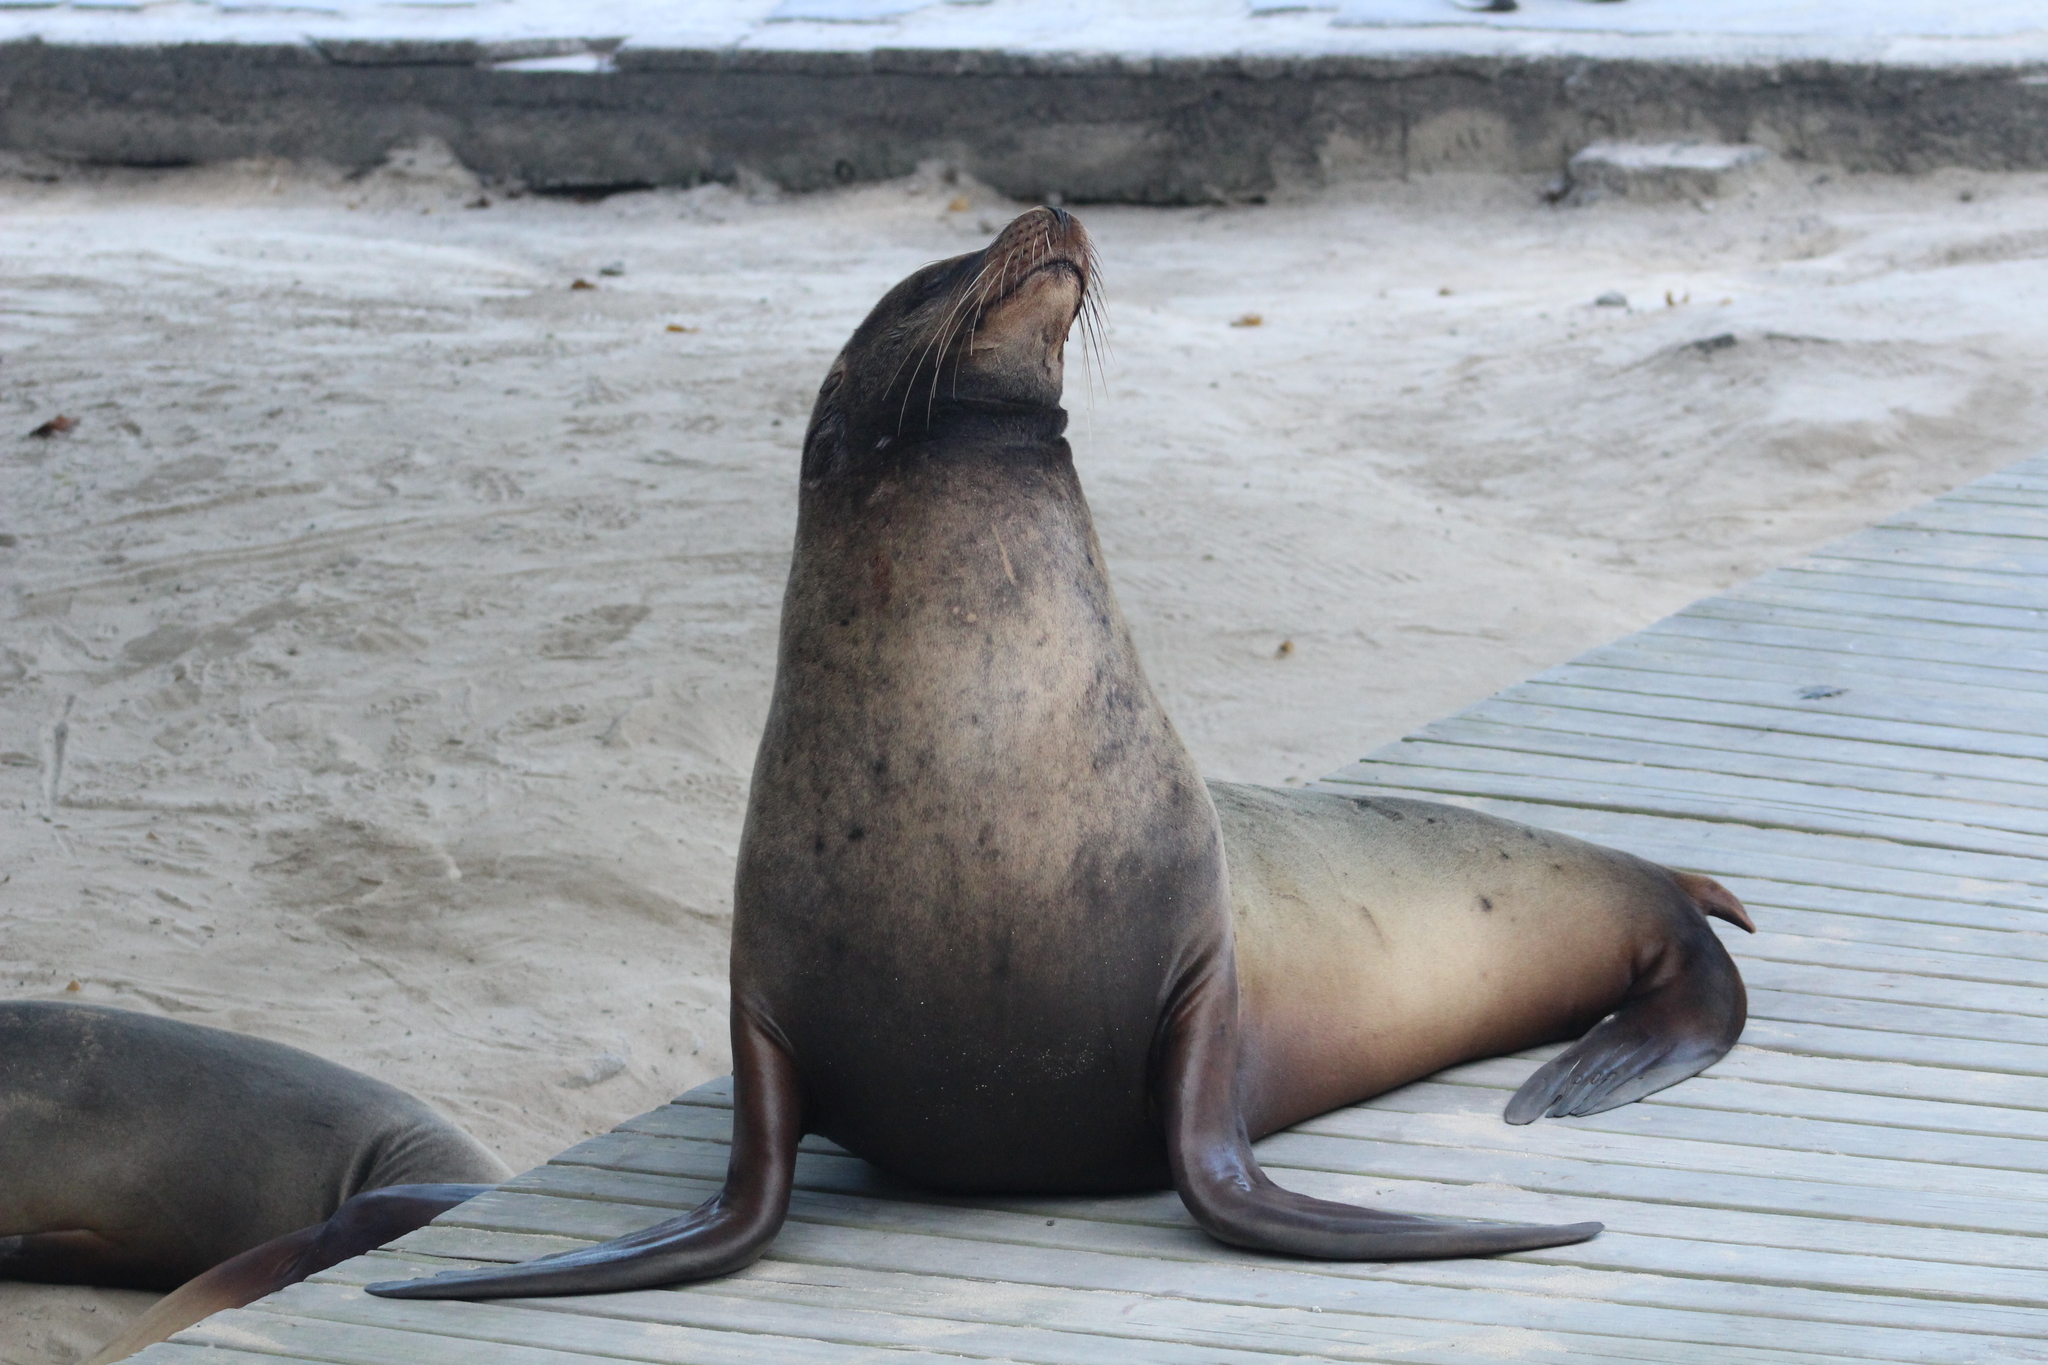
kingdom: Animalia
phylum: Chordata
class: Mammalia
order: Carnivora
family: Otariidae
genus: Zalophus
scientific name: Zalophus wollebaeki
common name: Galapagos sea lion
